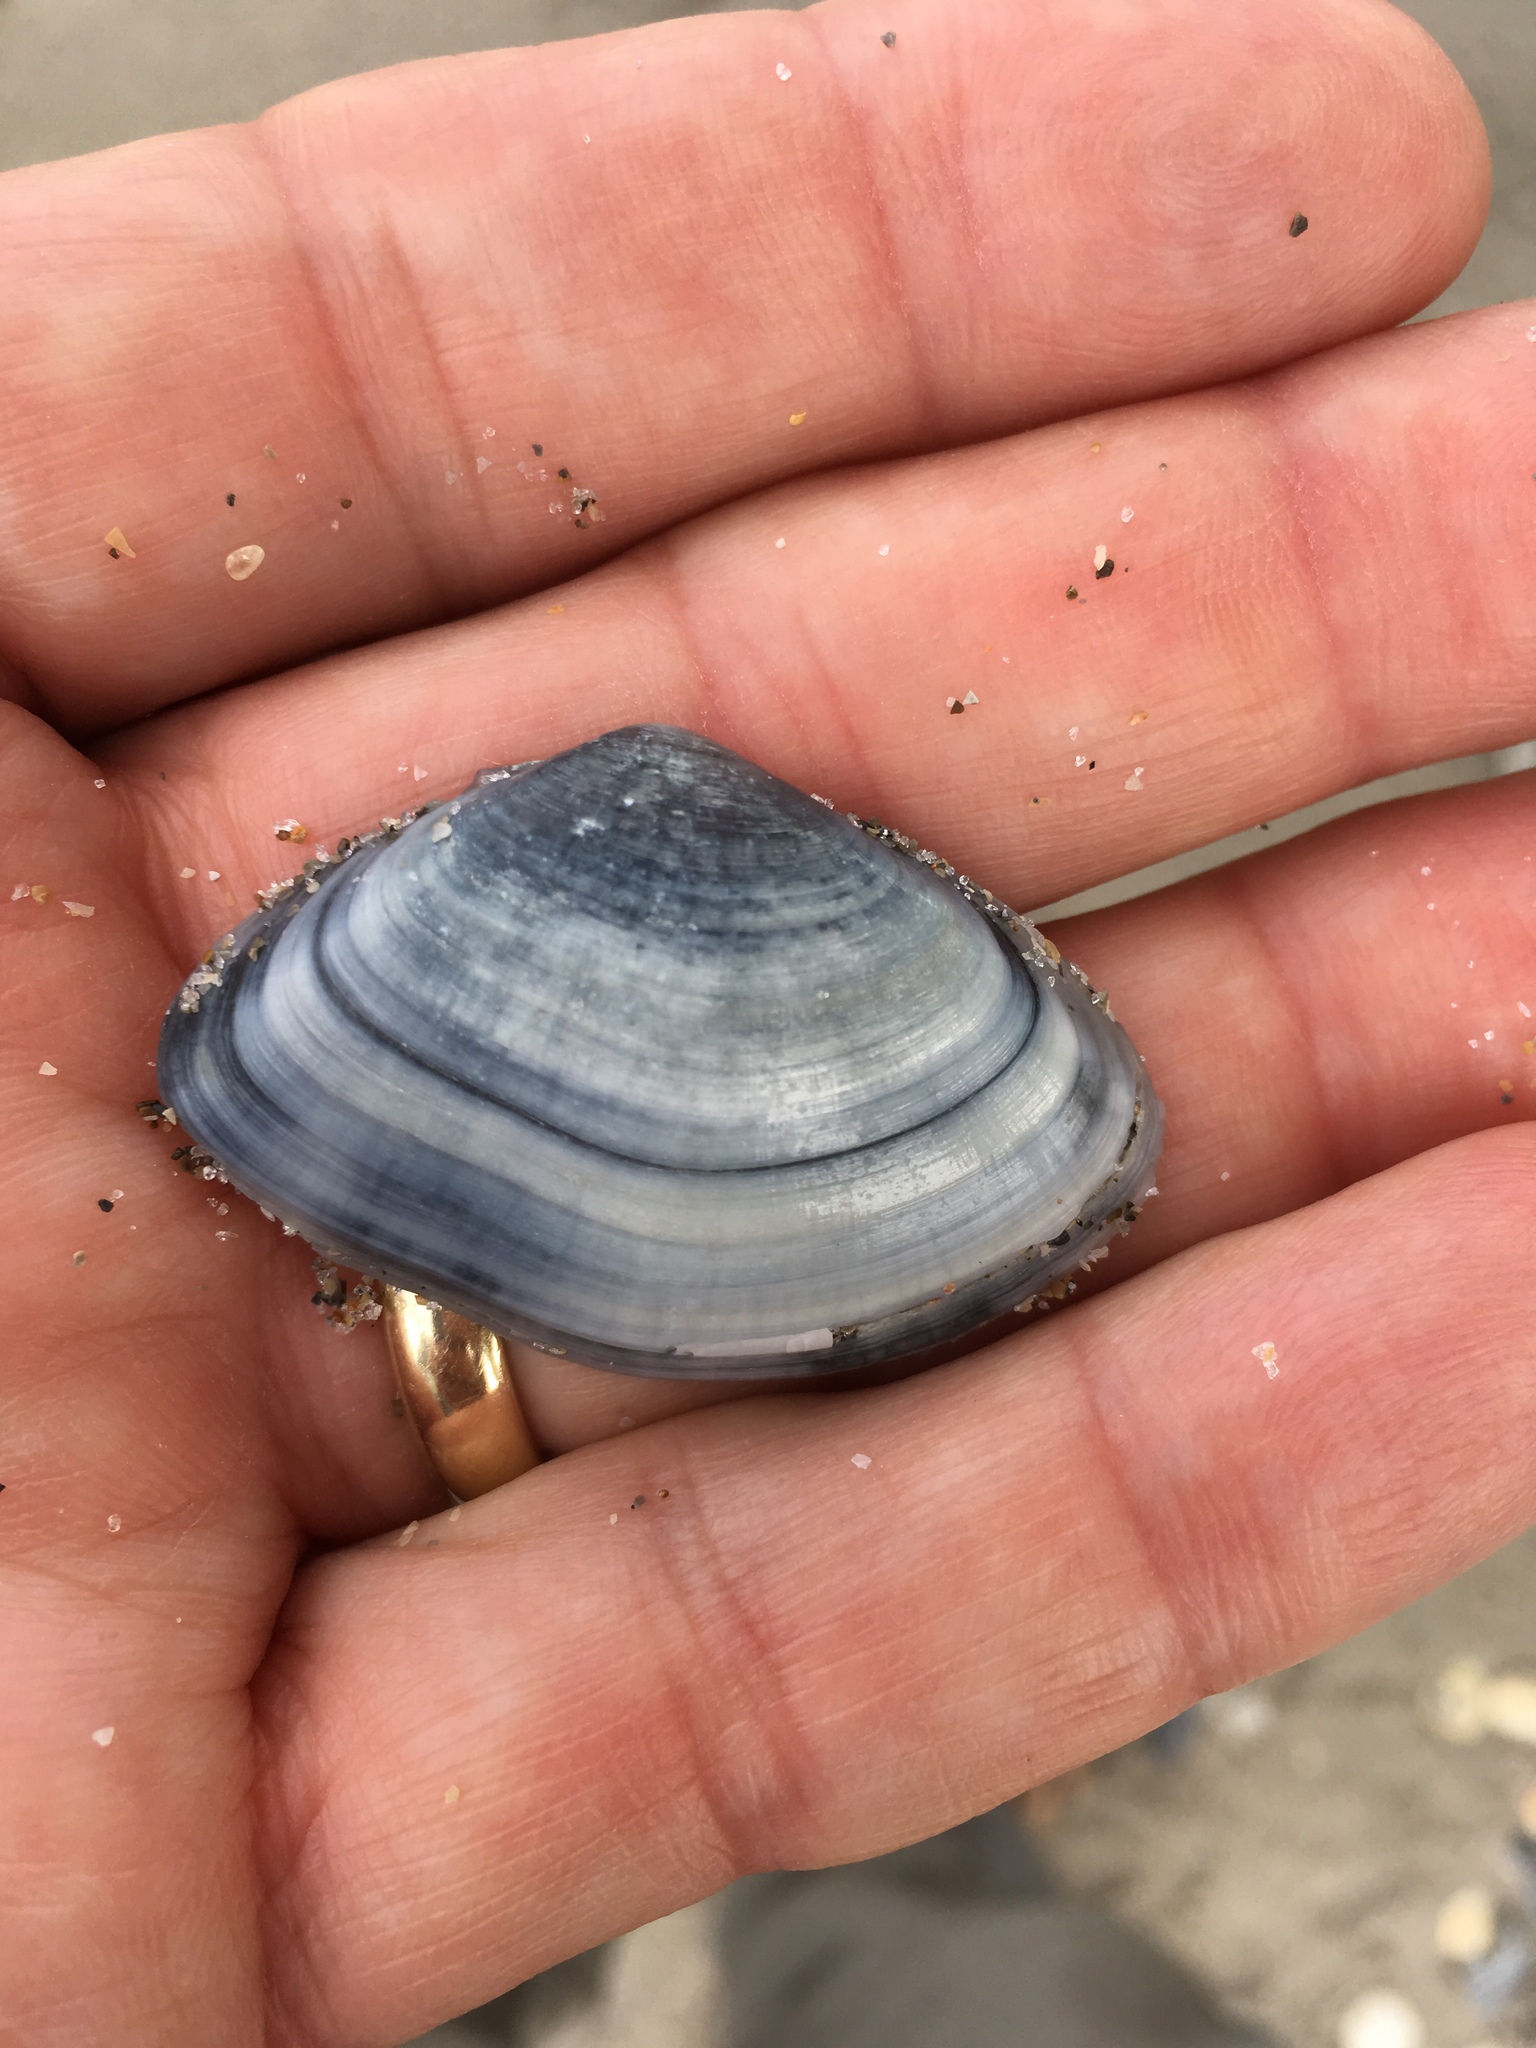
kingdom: Animalia
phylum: Mollusca
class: Bivalvia
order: Cardiida
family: Donacidae
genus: Iphigenia
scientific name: Iphigenia brasiliensis
